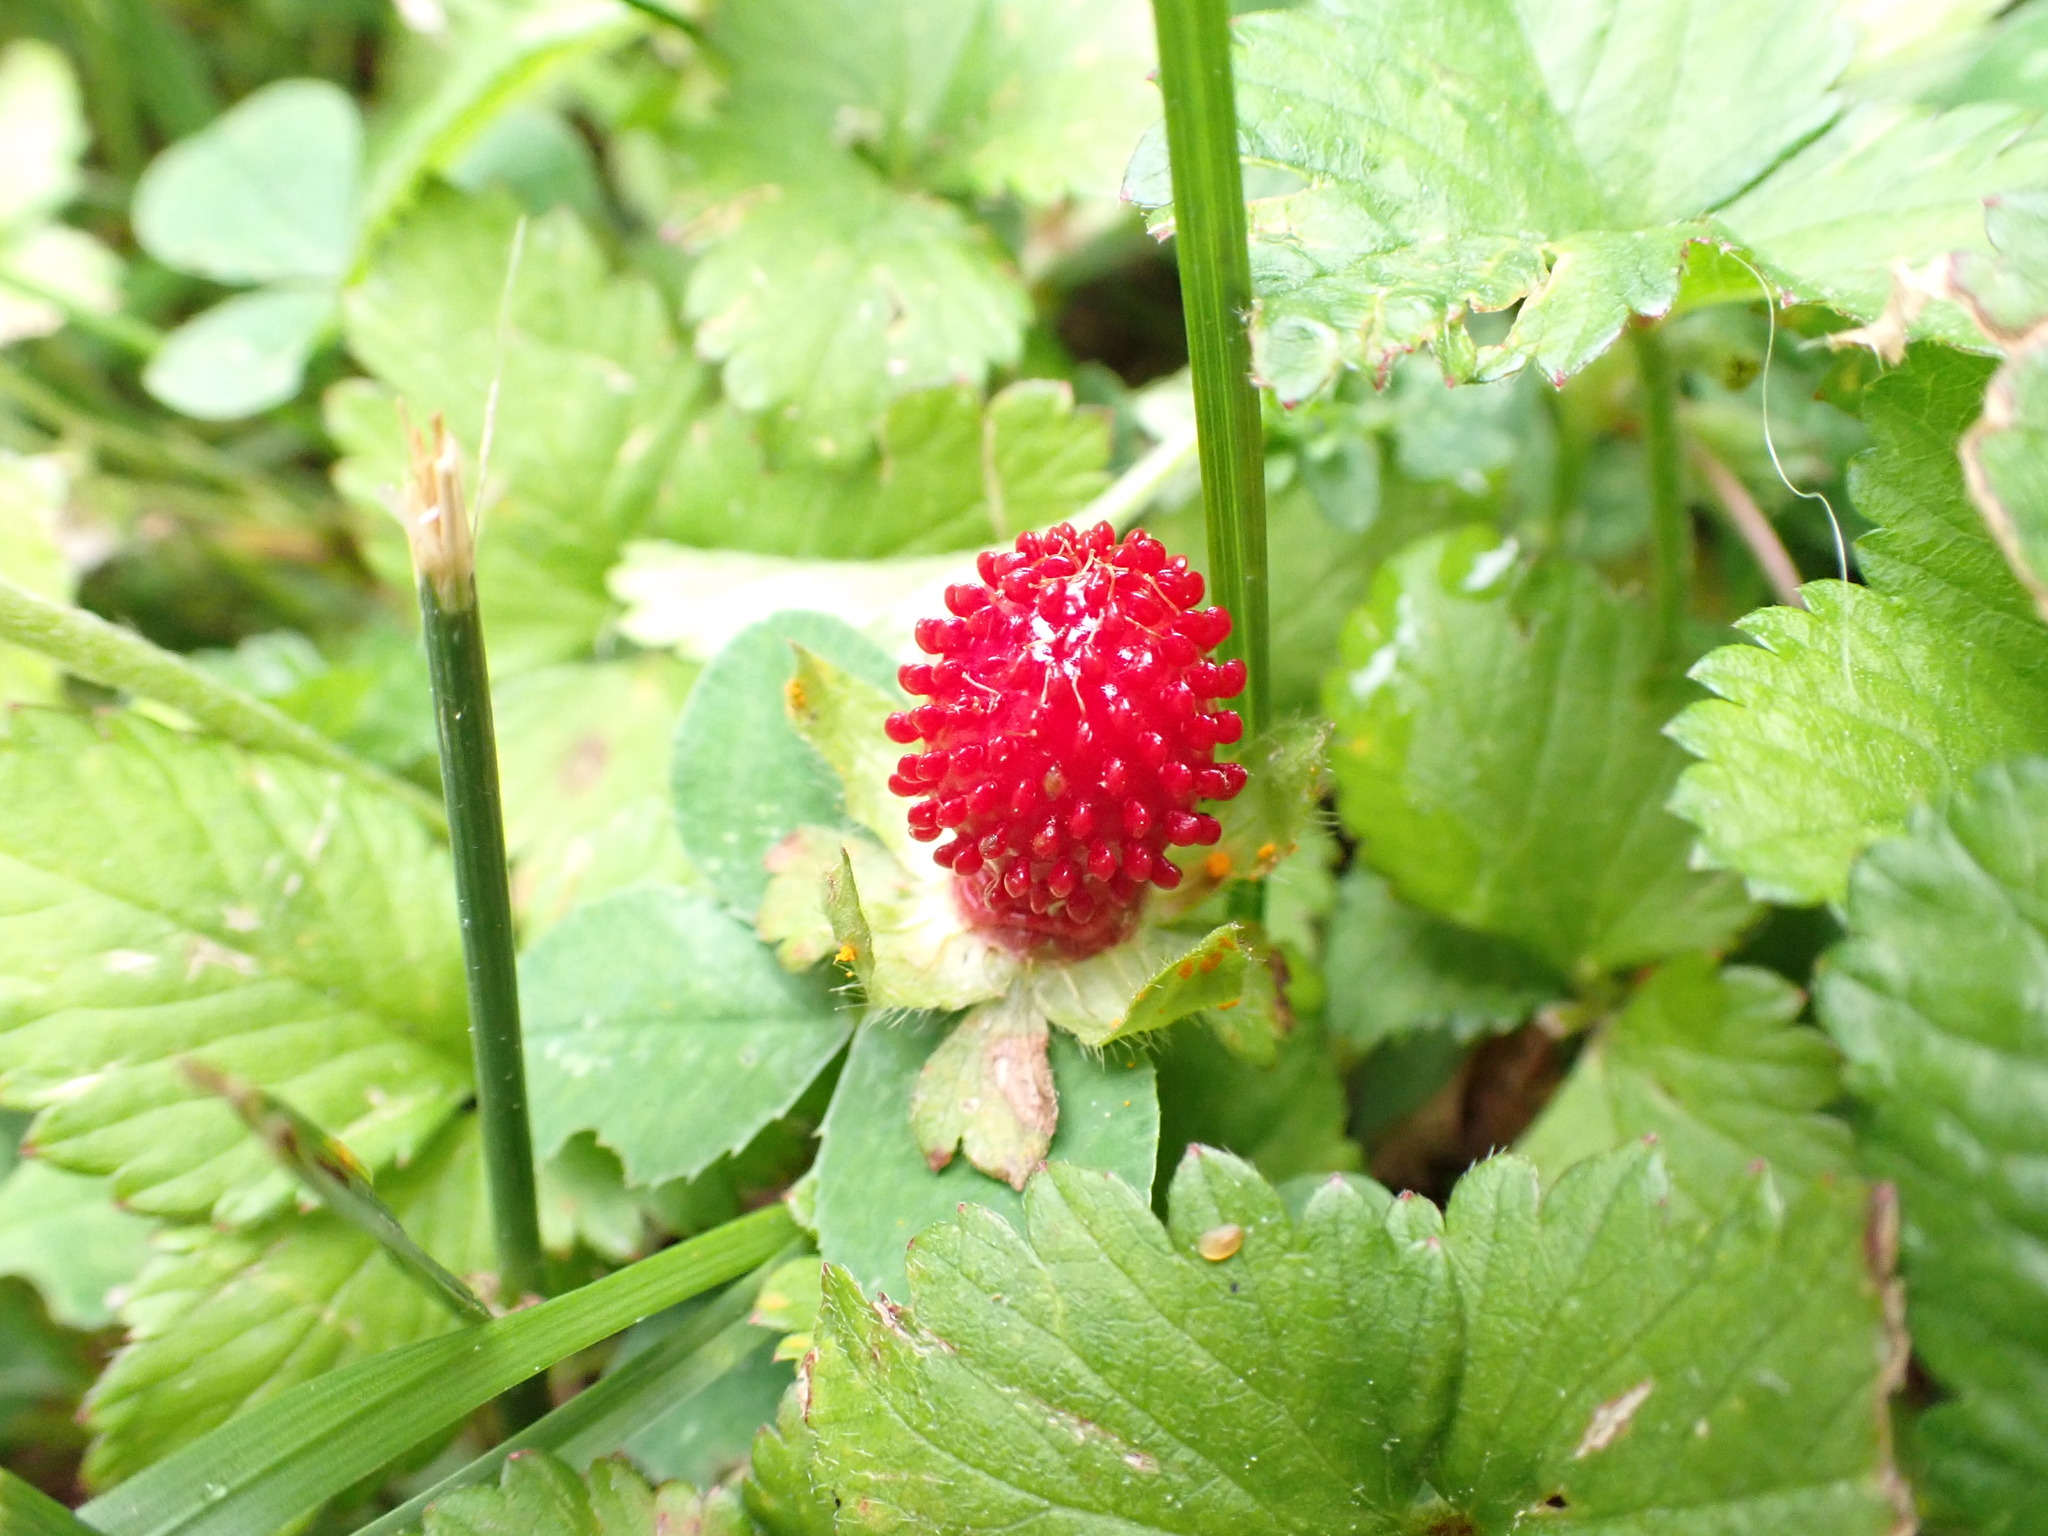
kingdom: Plantae
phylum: Tracheophyta
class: Magnoliopsida
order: Rosales
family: Rosaceae
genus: Potentilla
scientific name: Potentilla indica
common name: Yellow-flowered strawberry
